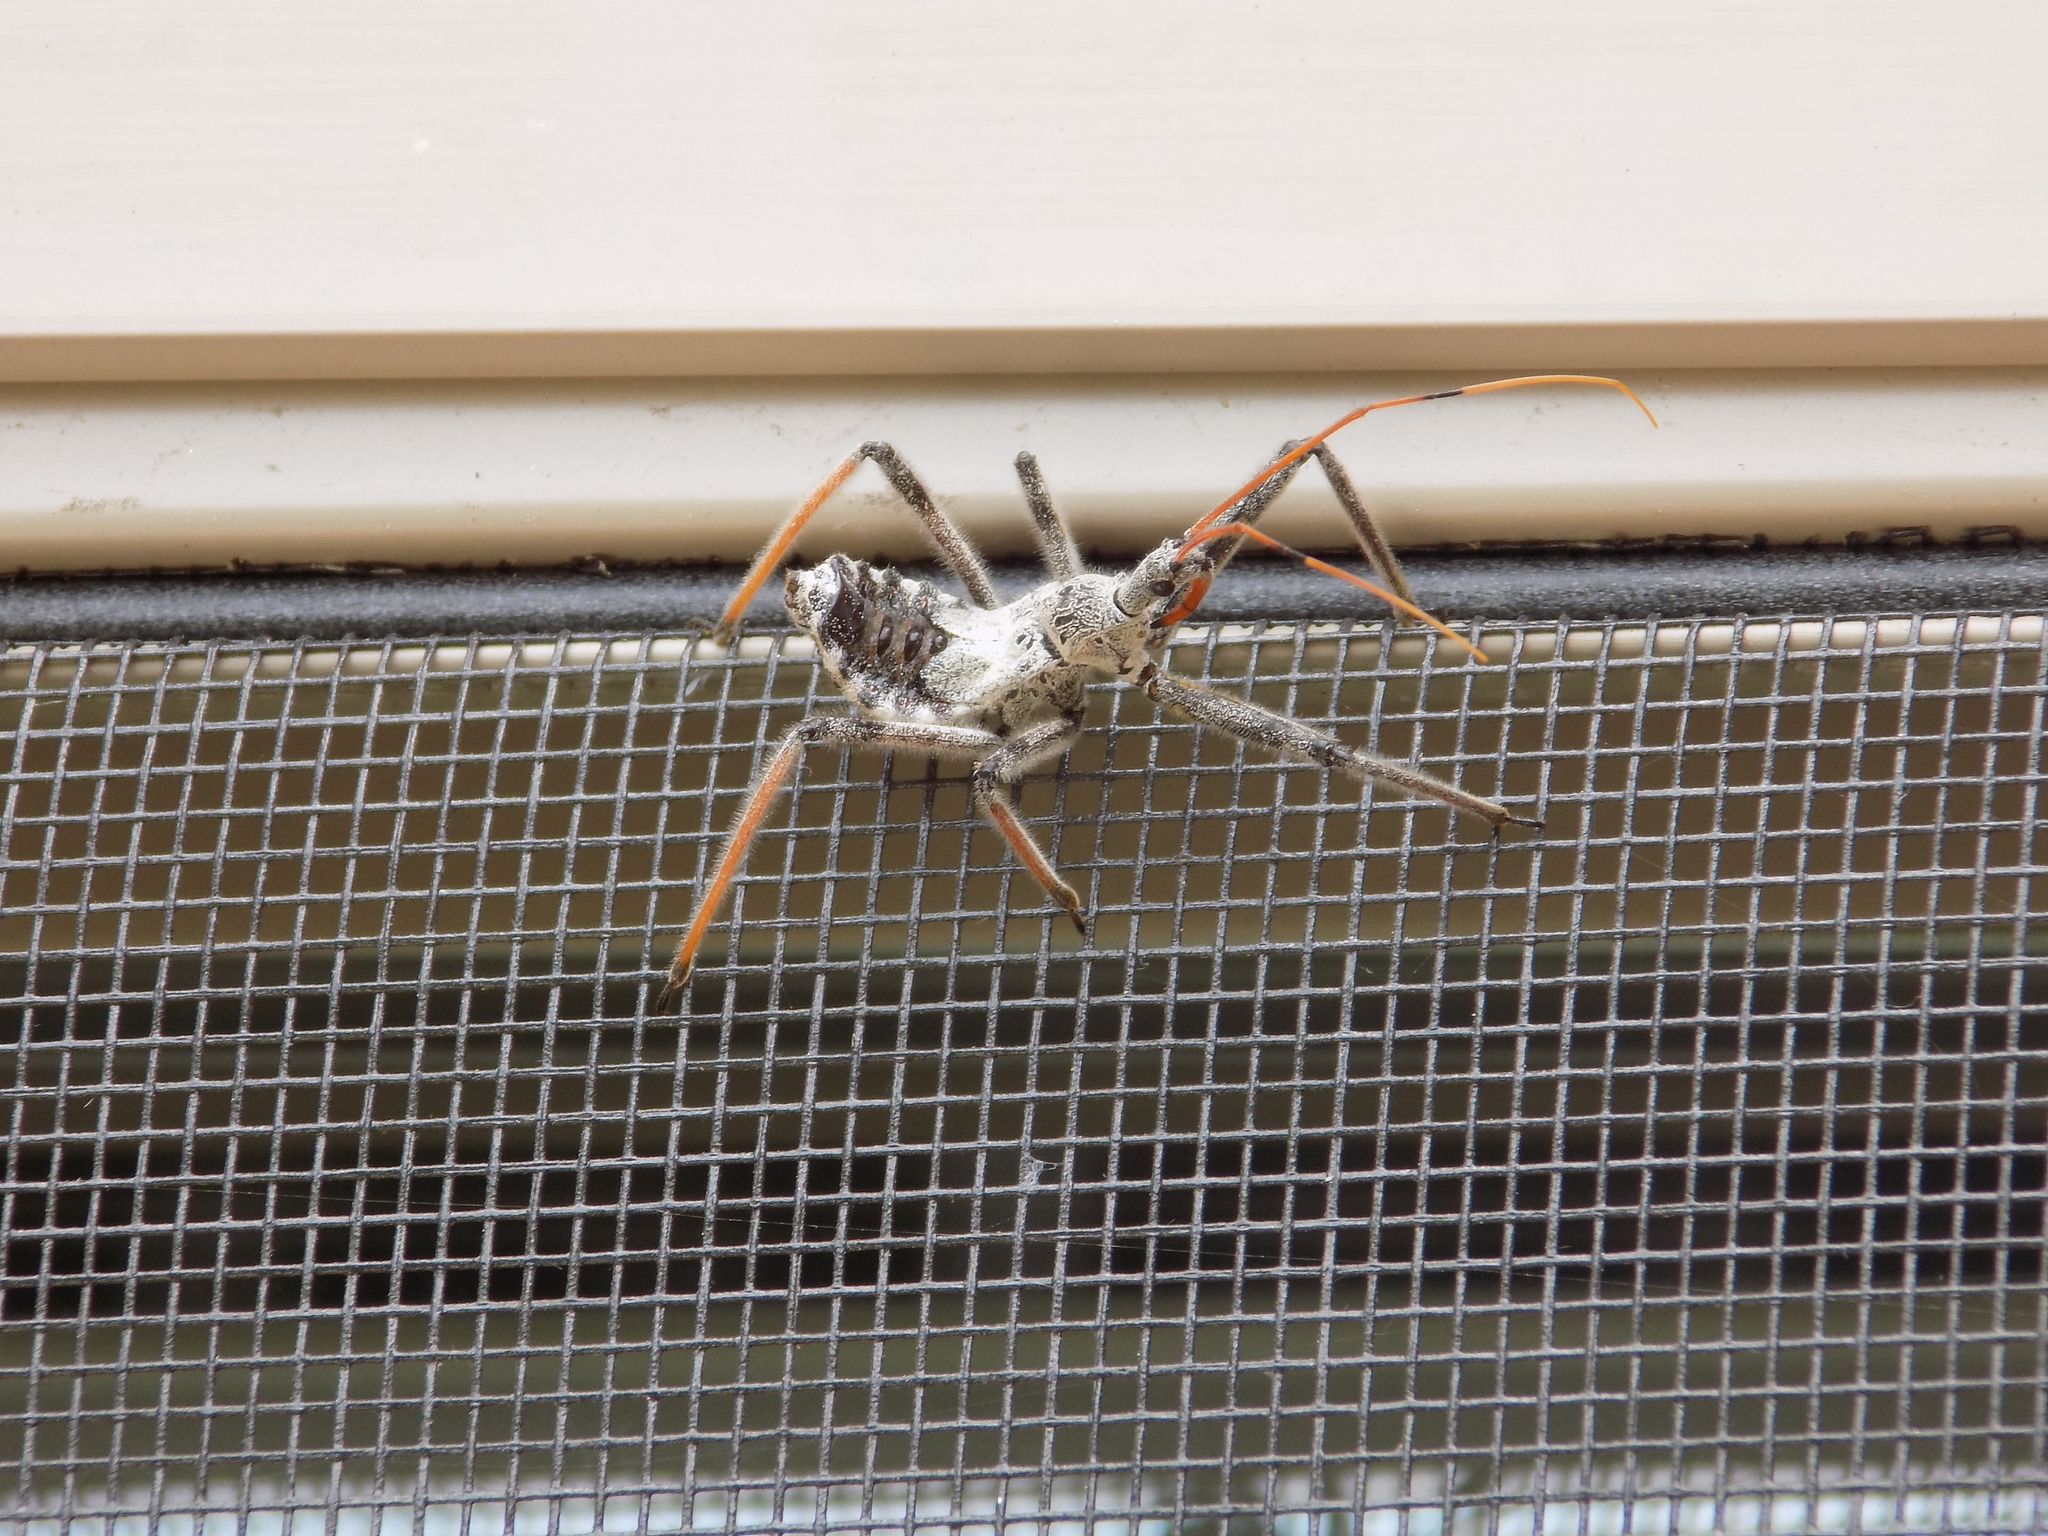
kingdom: Animalia
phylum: Arthropoda
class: Insecta
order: Hemiptera
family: Reduviidae
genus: Arilus
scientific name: Arilus cristatus
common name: North american wheel bug
